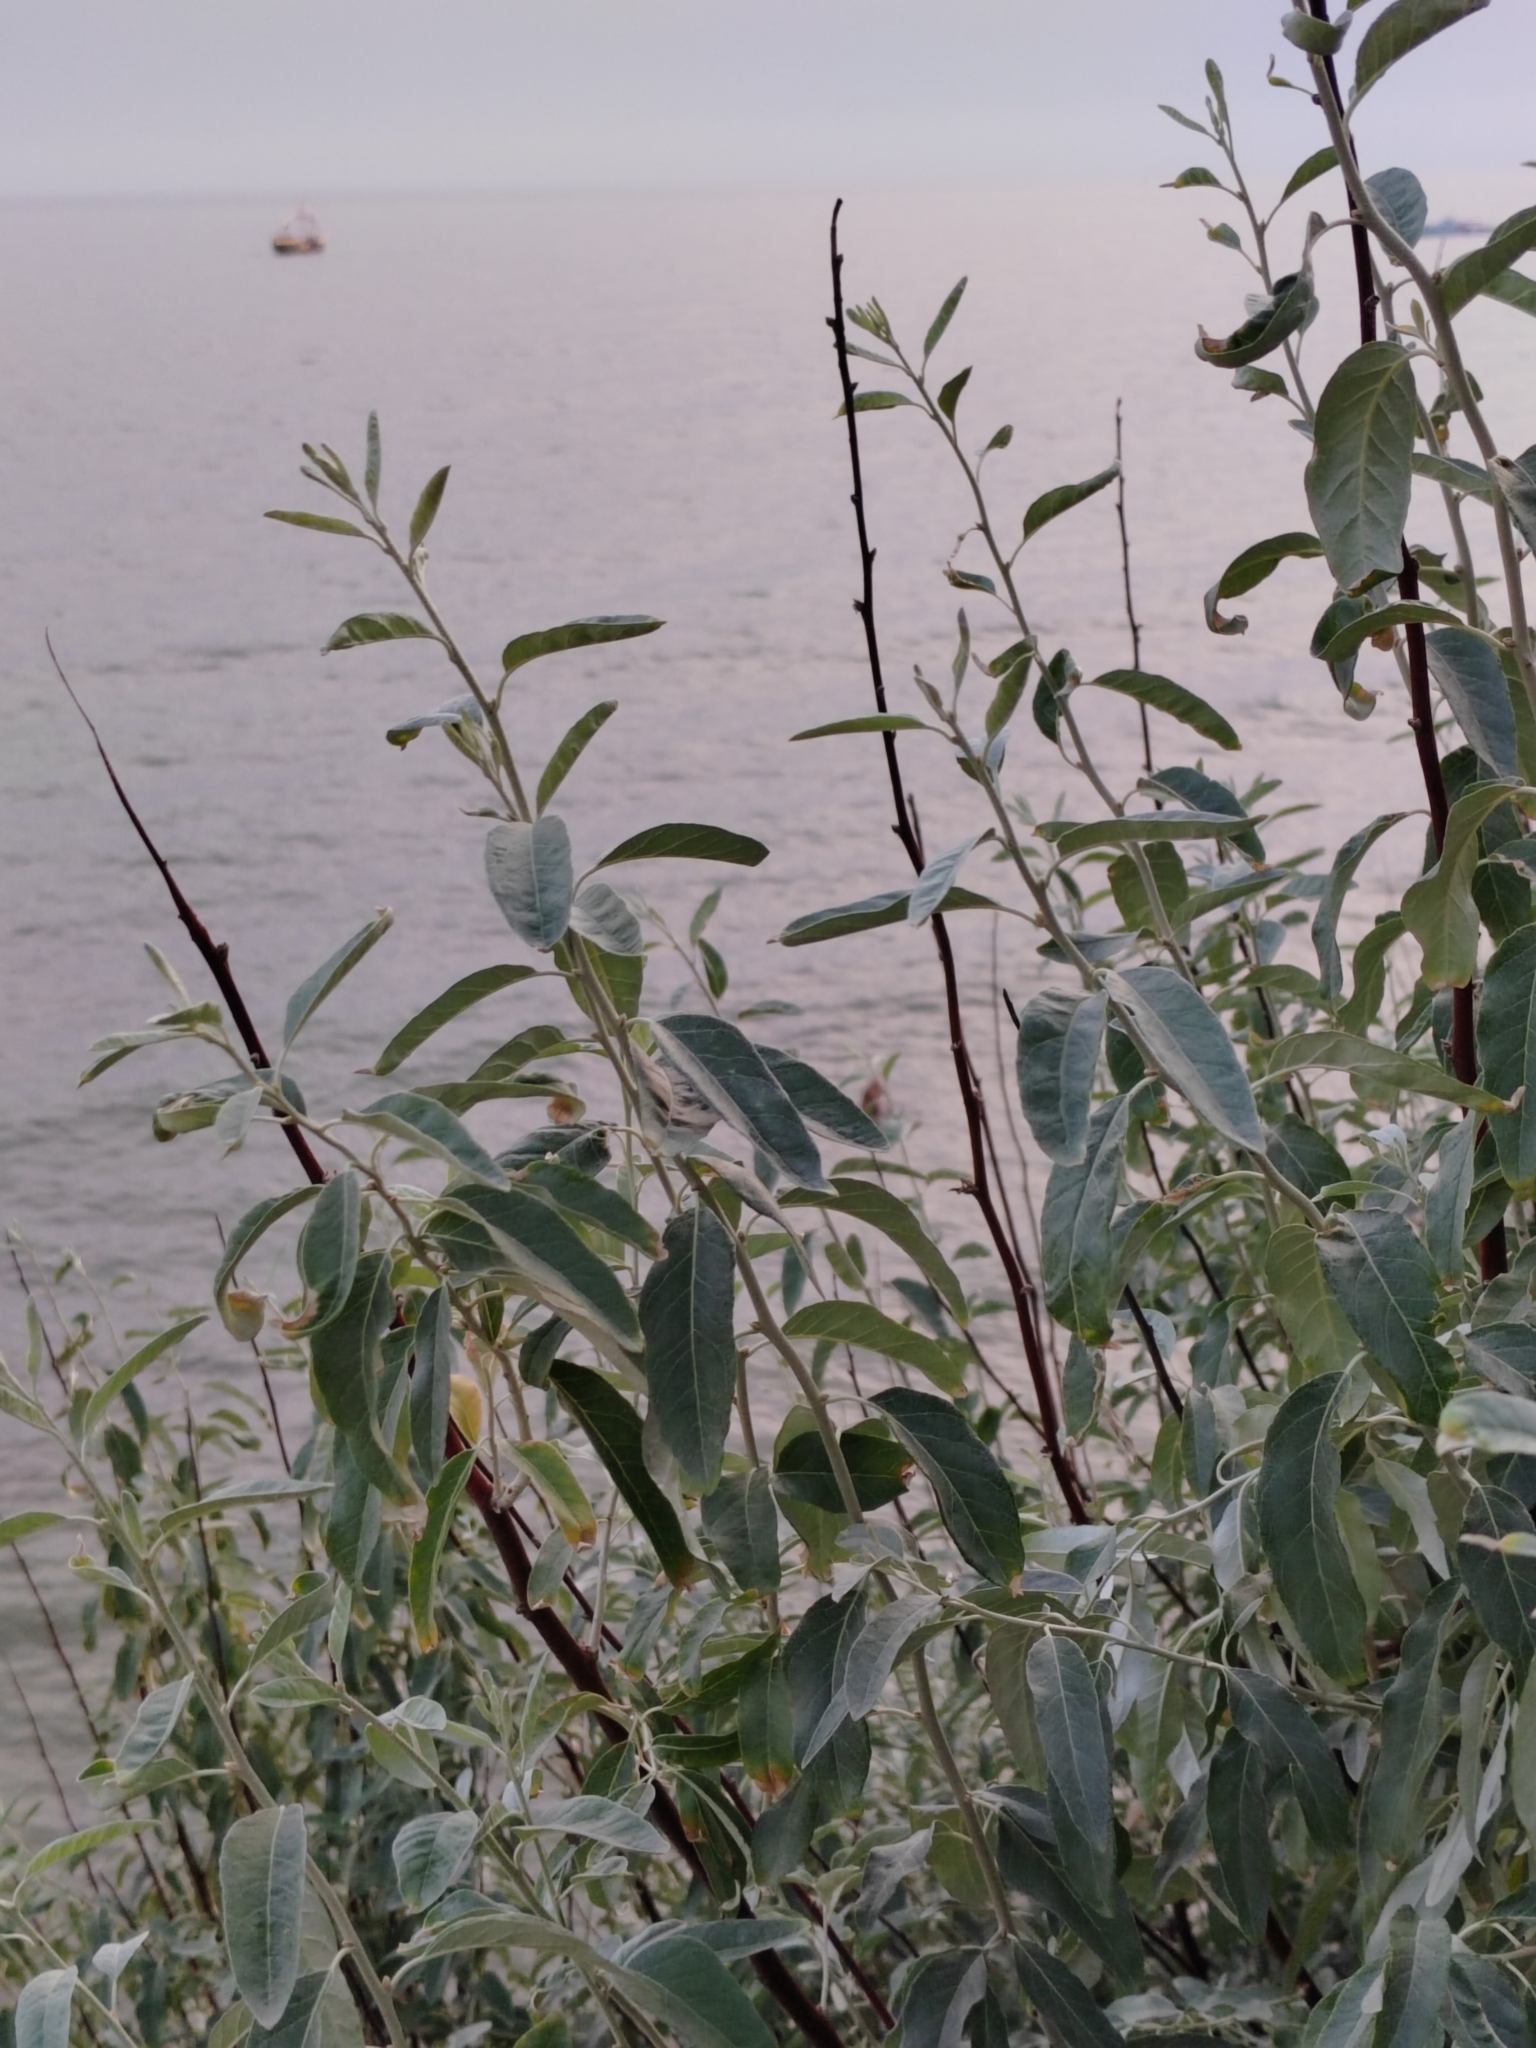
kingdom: Plantae
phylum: Tracheophyta
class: Magnoliopsida
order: Rosales
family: Elaeagnaceae
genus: Elaeagnus
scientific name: Elaeagnus angustifolia
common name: Russian olive
